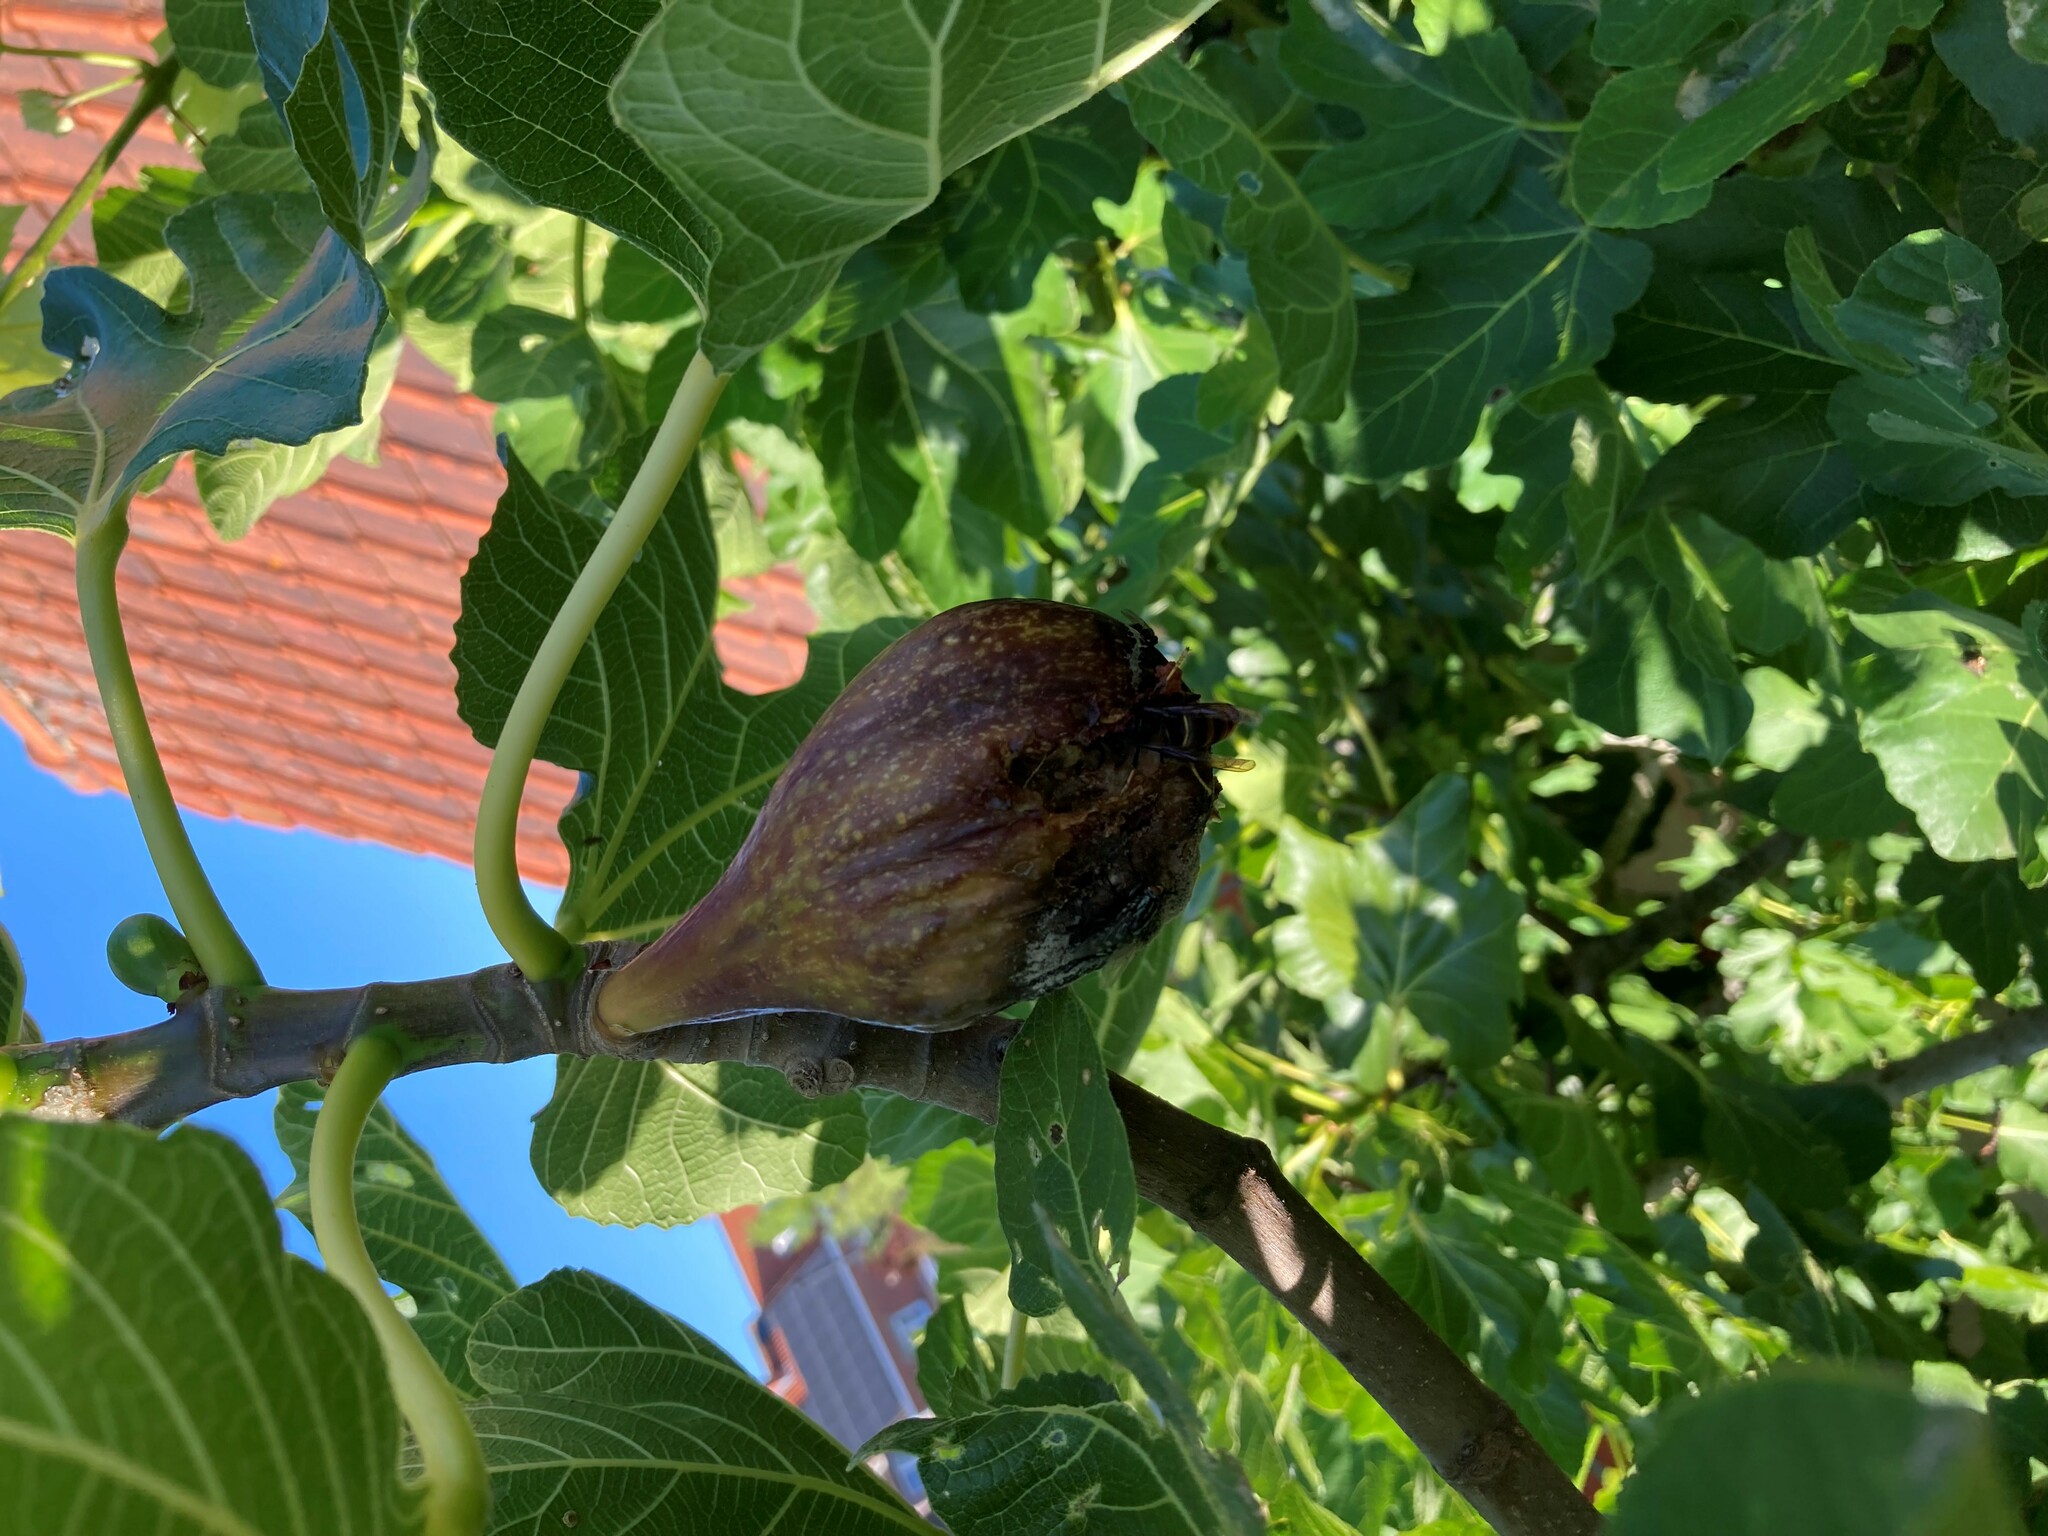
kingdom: Animalia
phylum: Arthropoda
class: Insecta
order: Hymenoptera
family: Vespidae
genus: Vespa
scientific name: Vespa velutina
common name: Asian hornet
